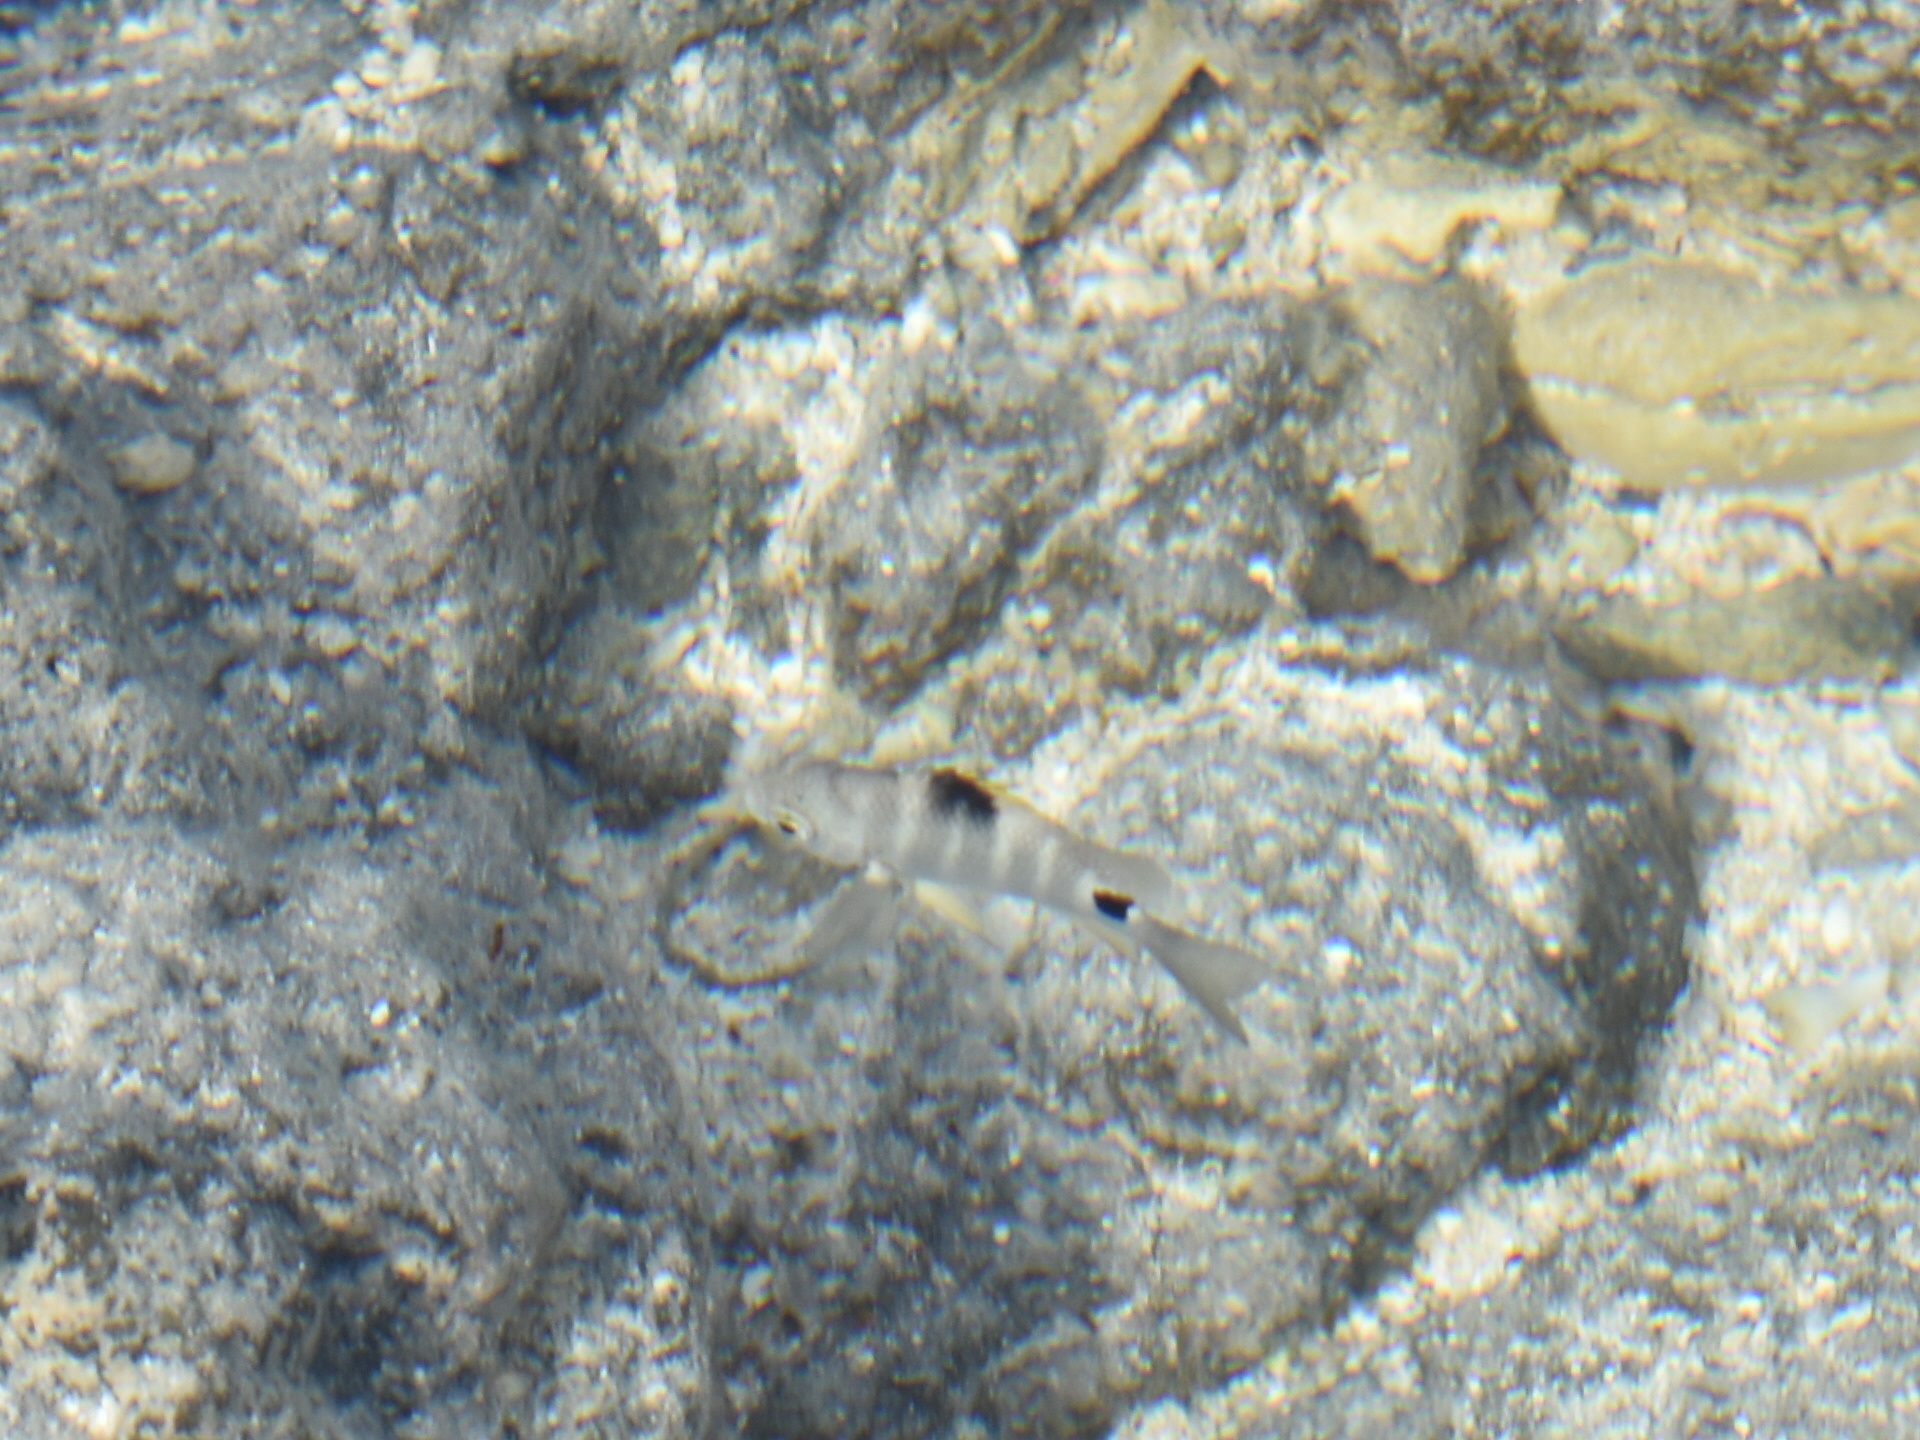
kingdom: Animalia
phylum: Chordata
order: Perciformes
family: Pomacentridae
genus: Abudefduf
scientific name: Abudefduf sordidus
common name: Blackspot sergeant
